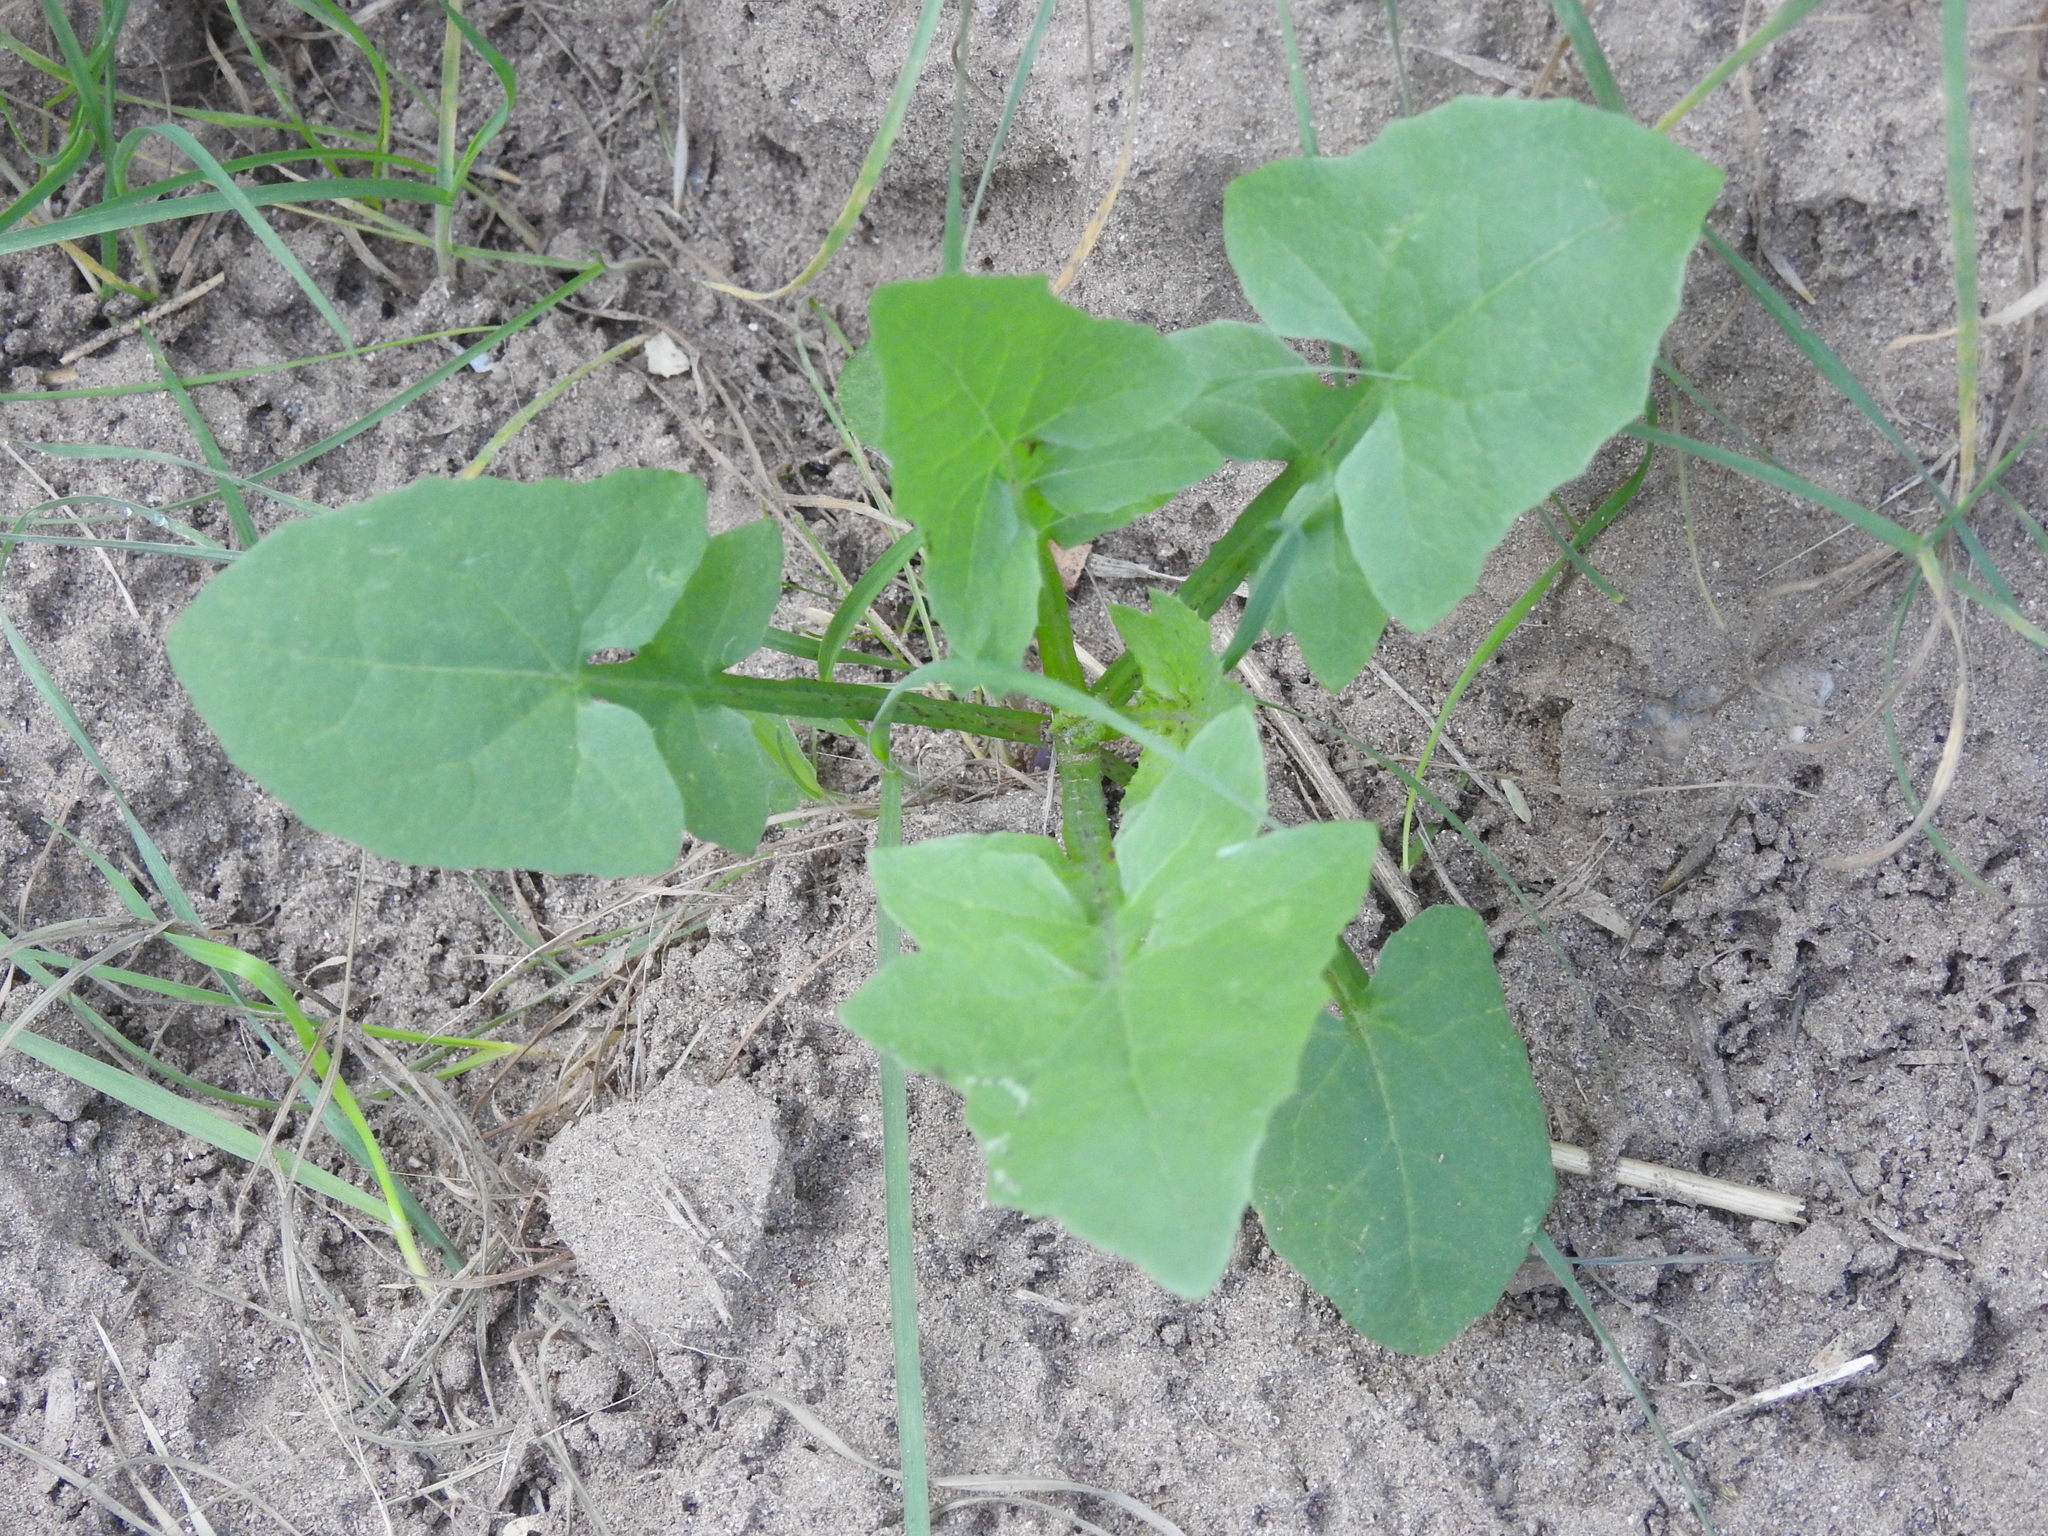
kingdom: Plantae
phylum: Tracheophyta
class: Magnoliopsida
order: Asterales
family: Asteraceae
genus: Sonchus
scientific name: Sonchus oleraceus
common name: Common sowthistle
